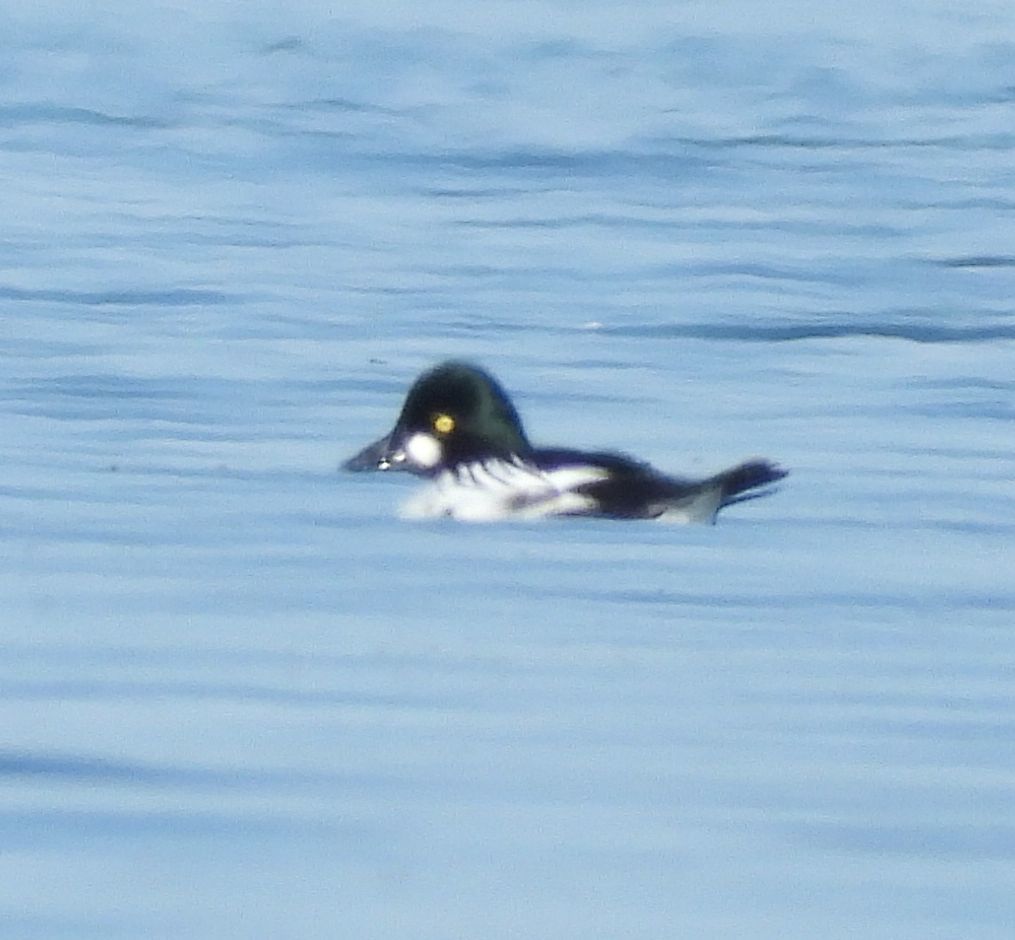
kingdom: Animalia
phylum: Chordata
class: Aves
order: Anseriformes
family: Anatidae
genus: Bucephala
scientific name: Bucephala clangula
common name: Common goldeneye
